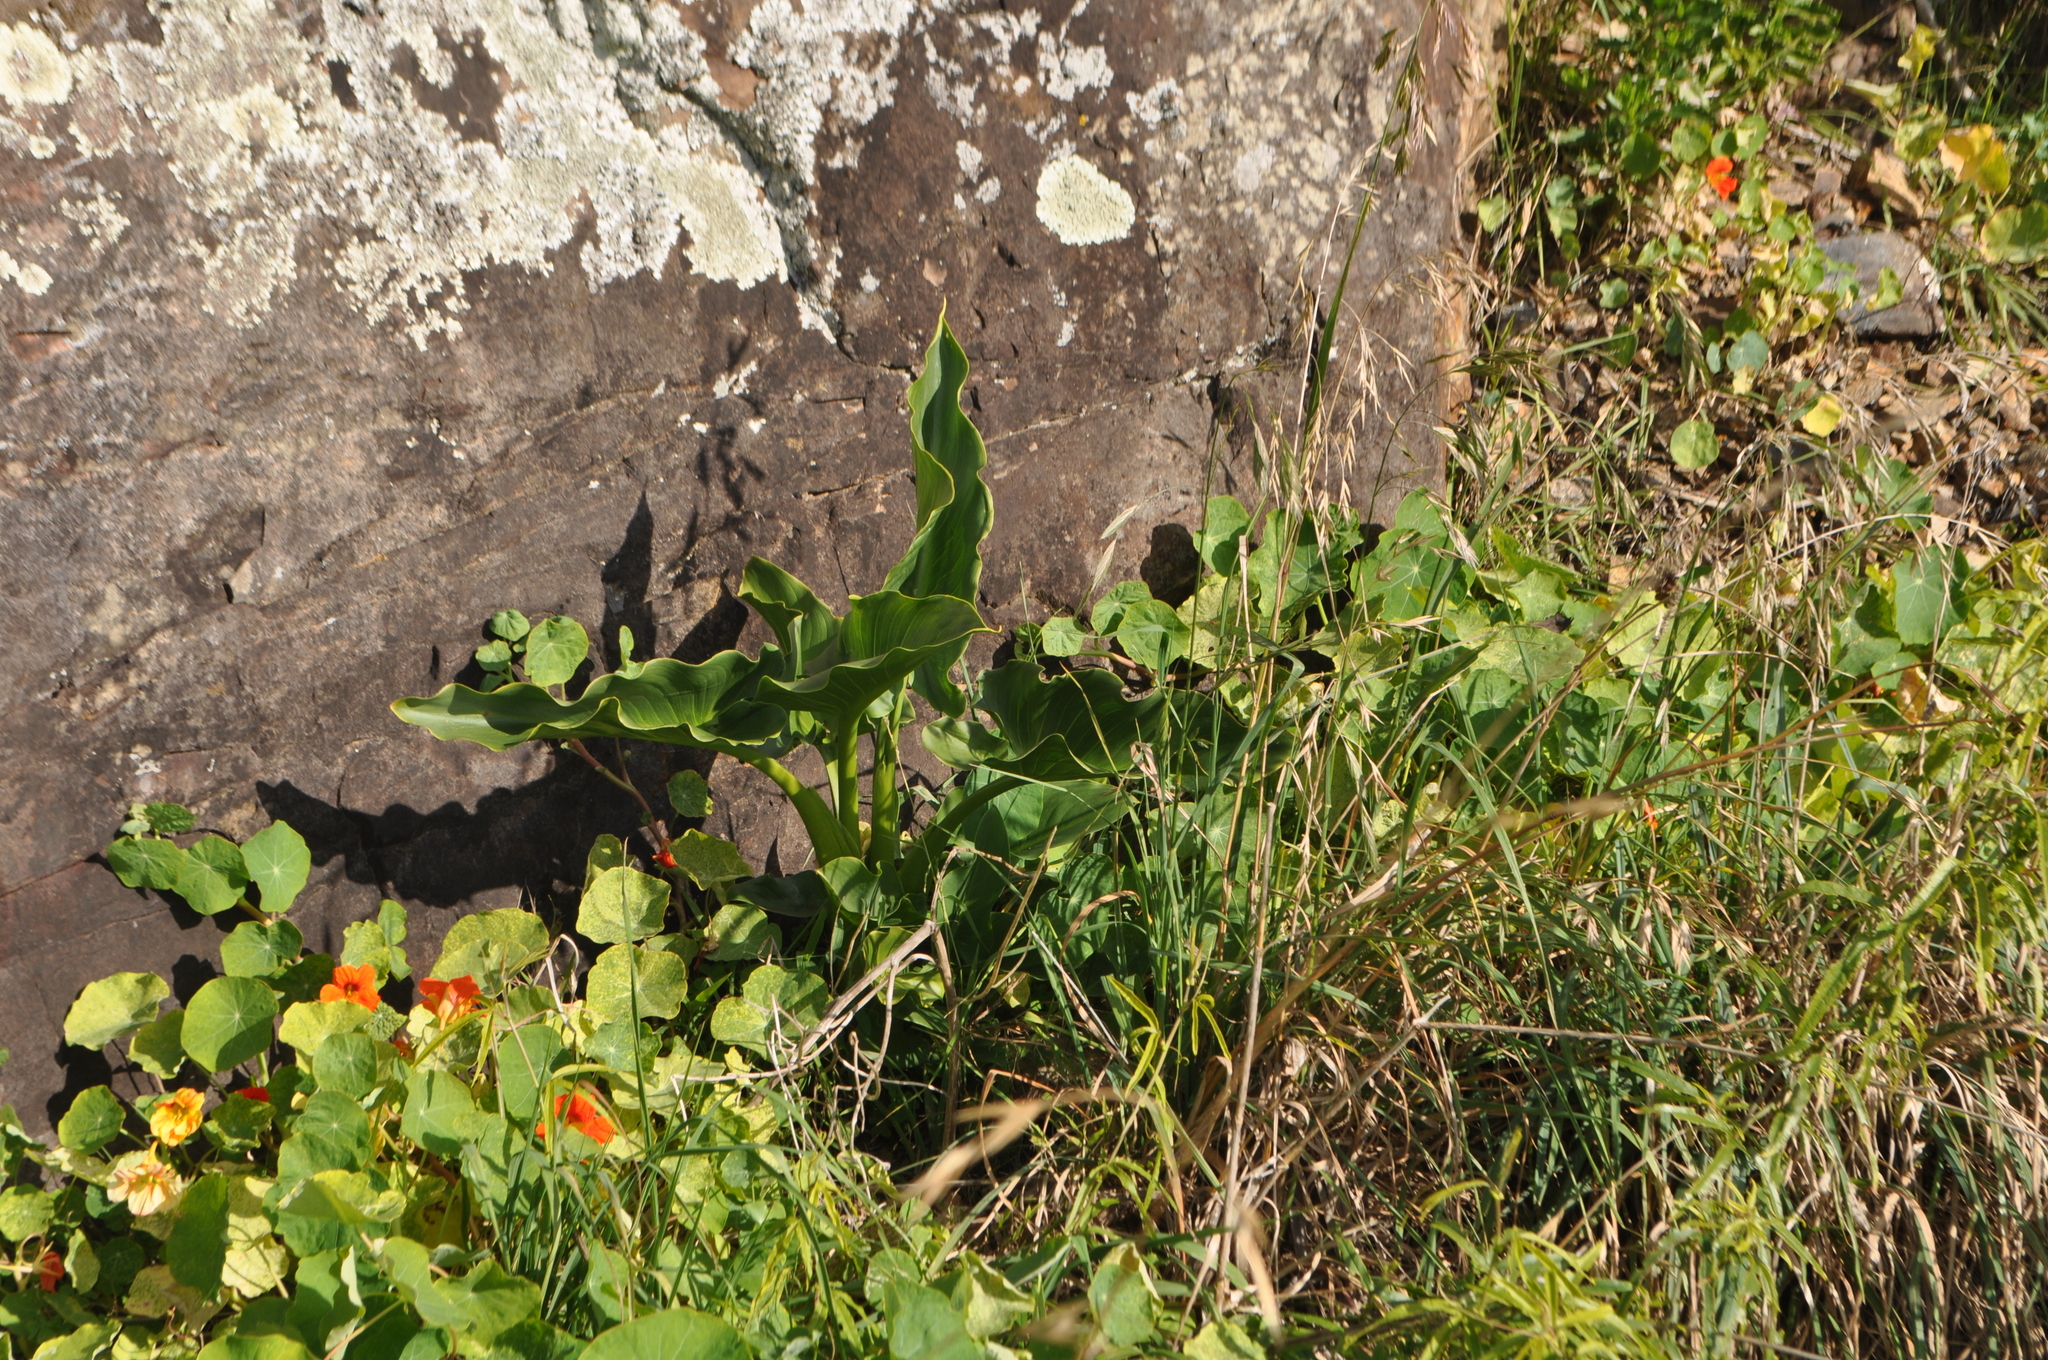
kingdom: Plantae
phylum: Tracheophyta
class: Liliopsida
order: Alismatales
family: Araceae
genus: Zantedeschia
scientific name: Zantedeschia aethiopica
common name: Altar-lily
